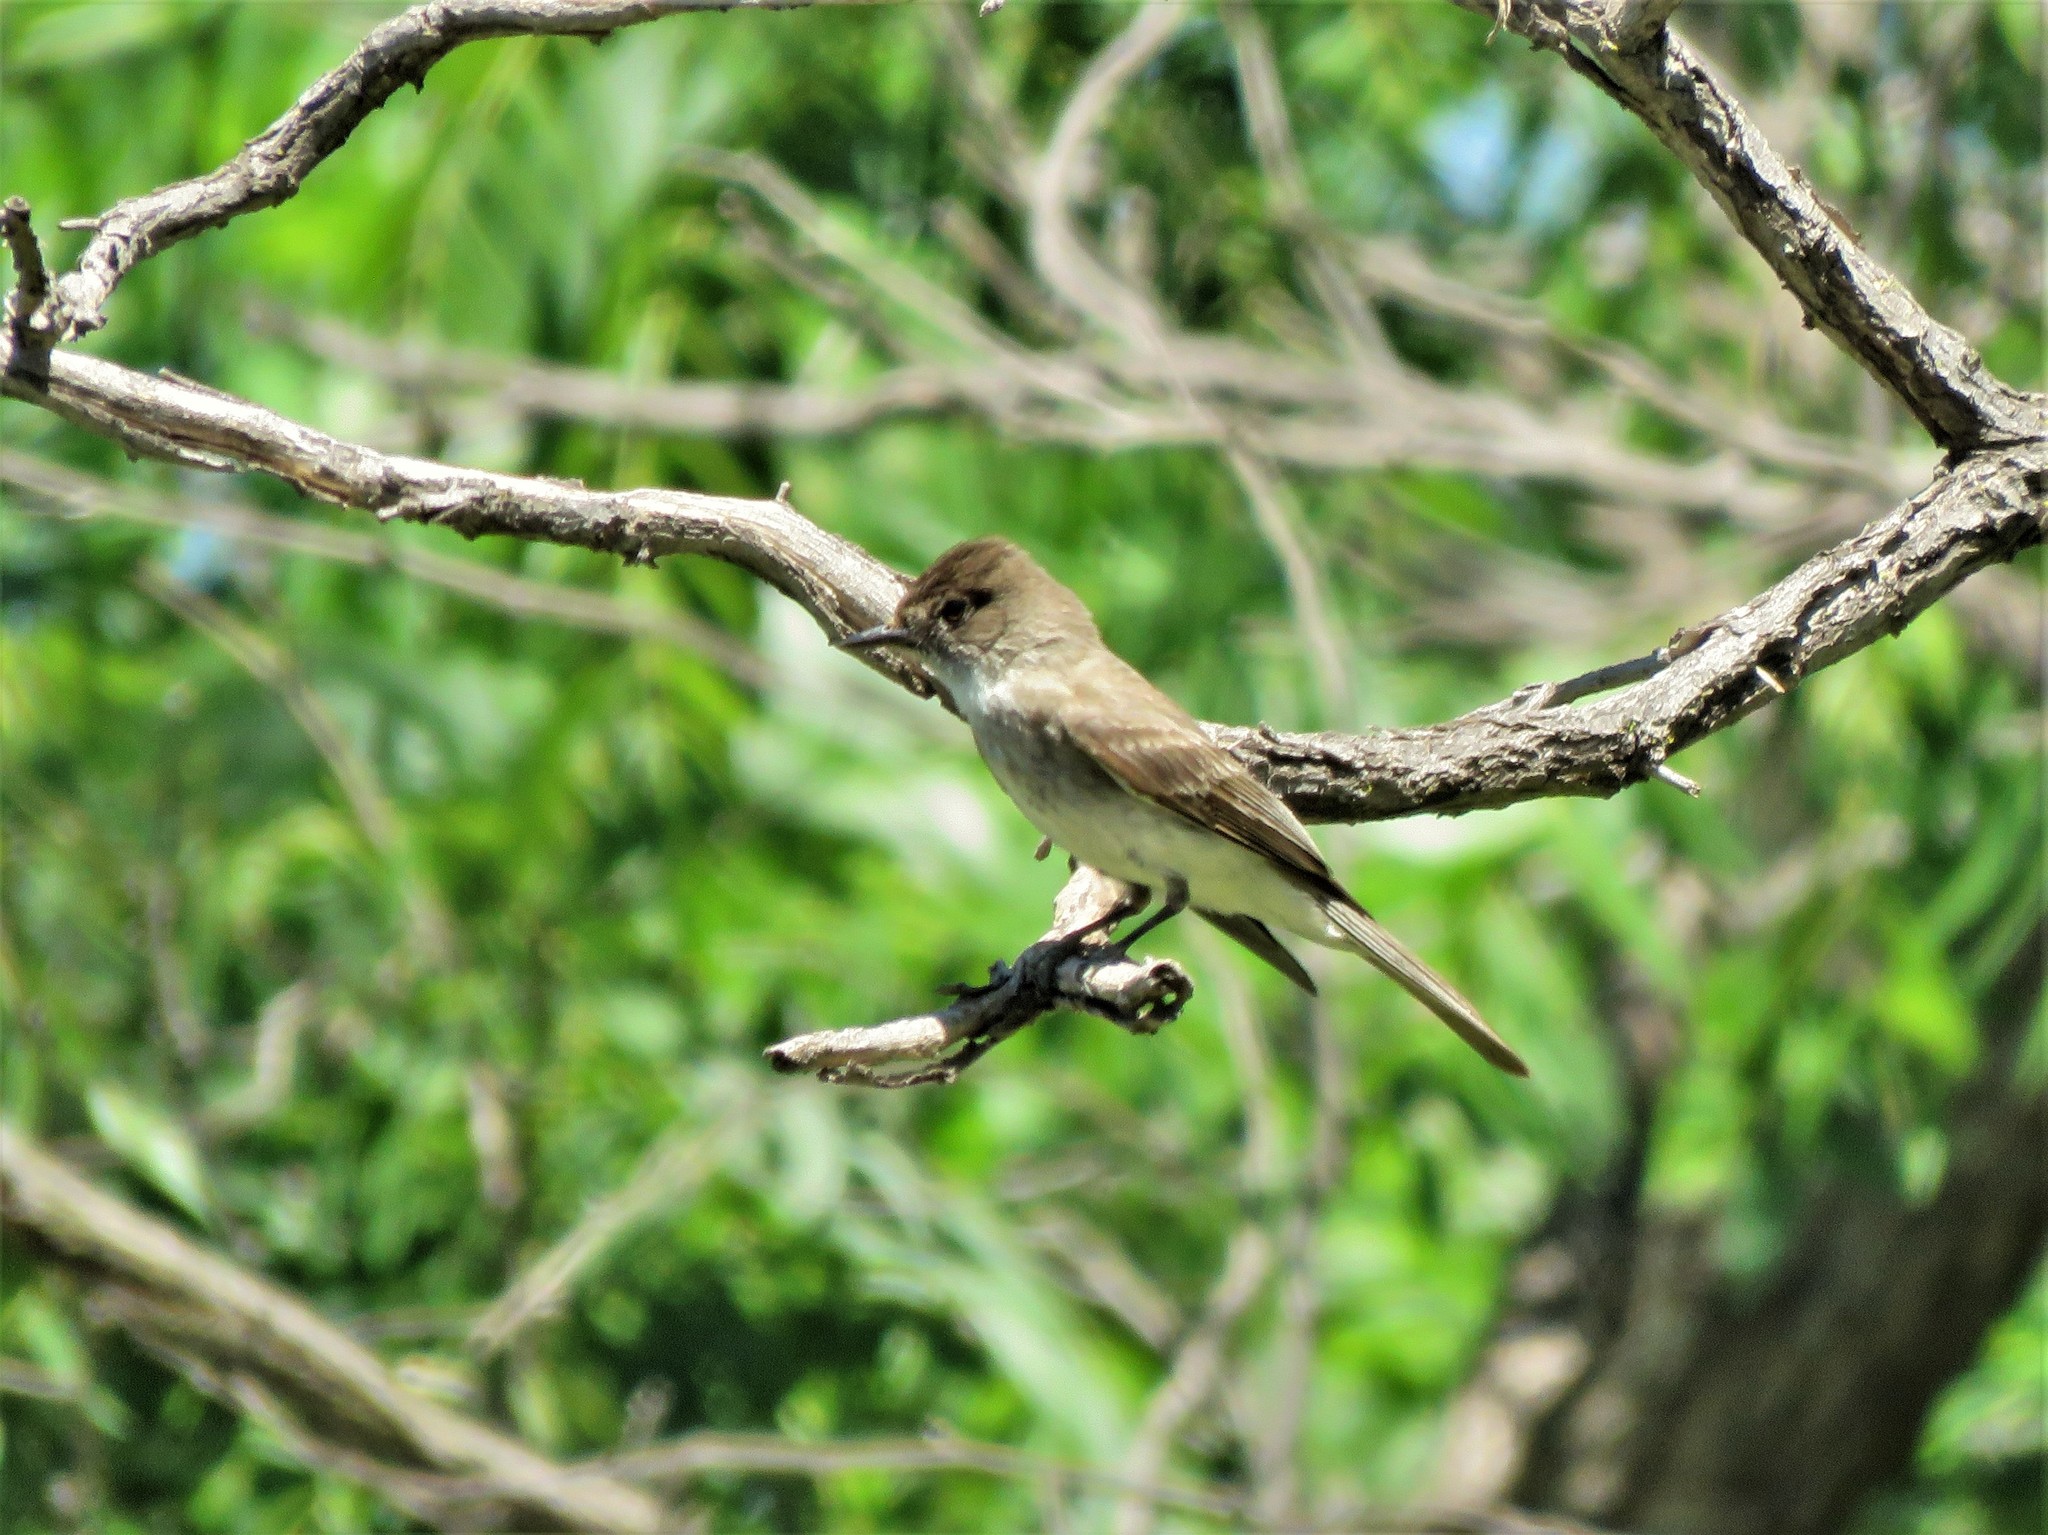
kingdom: Animalia
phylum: Chordata
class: Aves
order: Passeriformes
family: Tyrannidae
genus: Sayornis
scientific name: Sayornis phoebe
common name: Eastern phoebe
